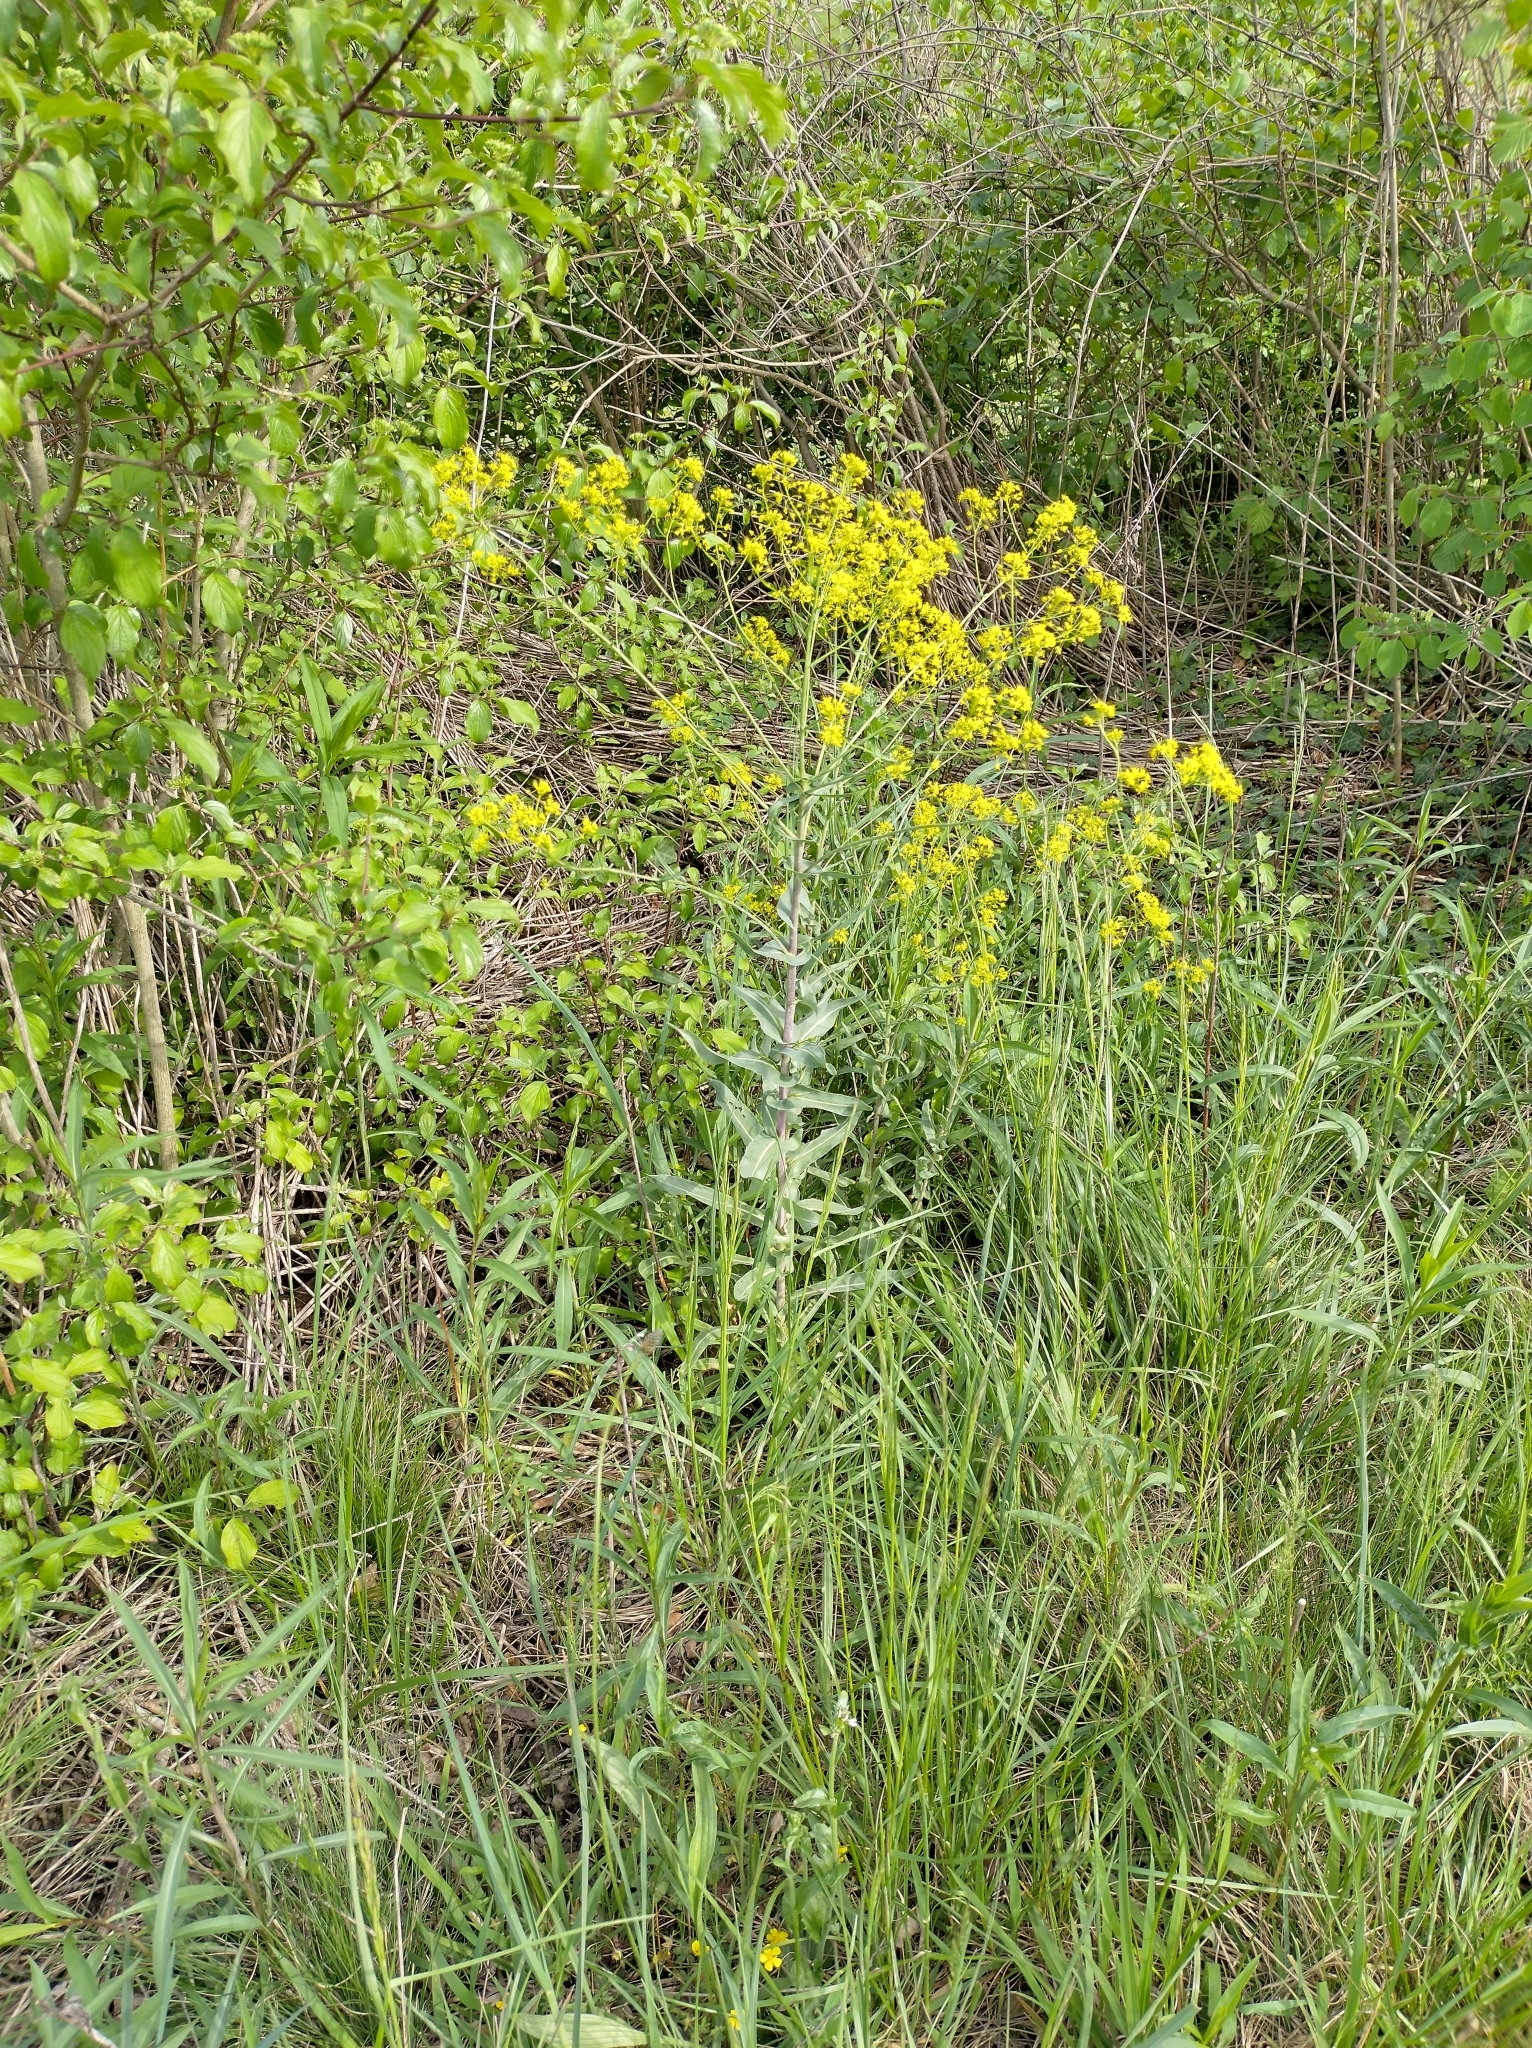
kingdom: Plantae
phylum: Tracheophyta
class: Magnoliopsida
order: Brassicales
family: Brassicaceae
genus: Isatis
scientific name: Isatis tinctoria
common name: Woad
